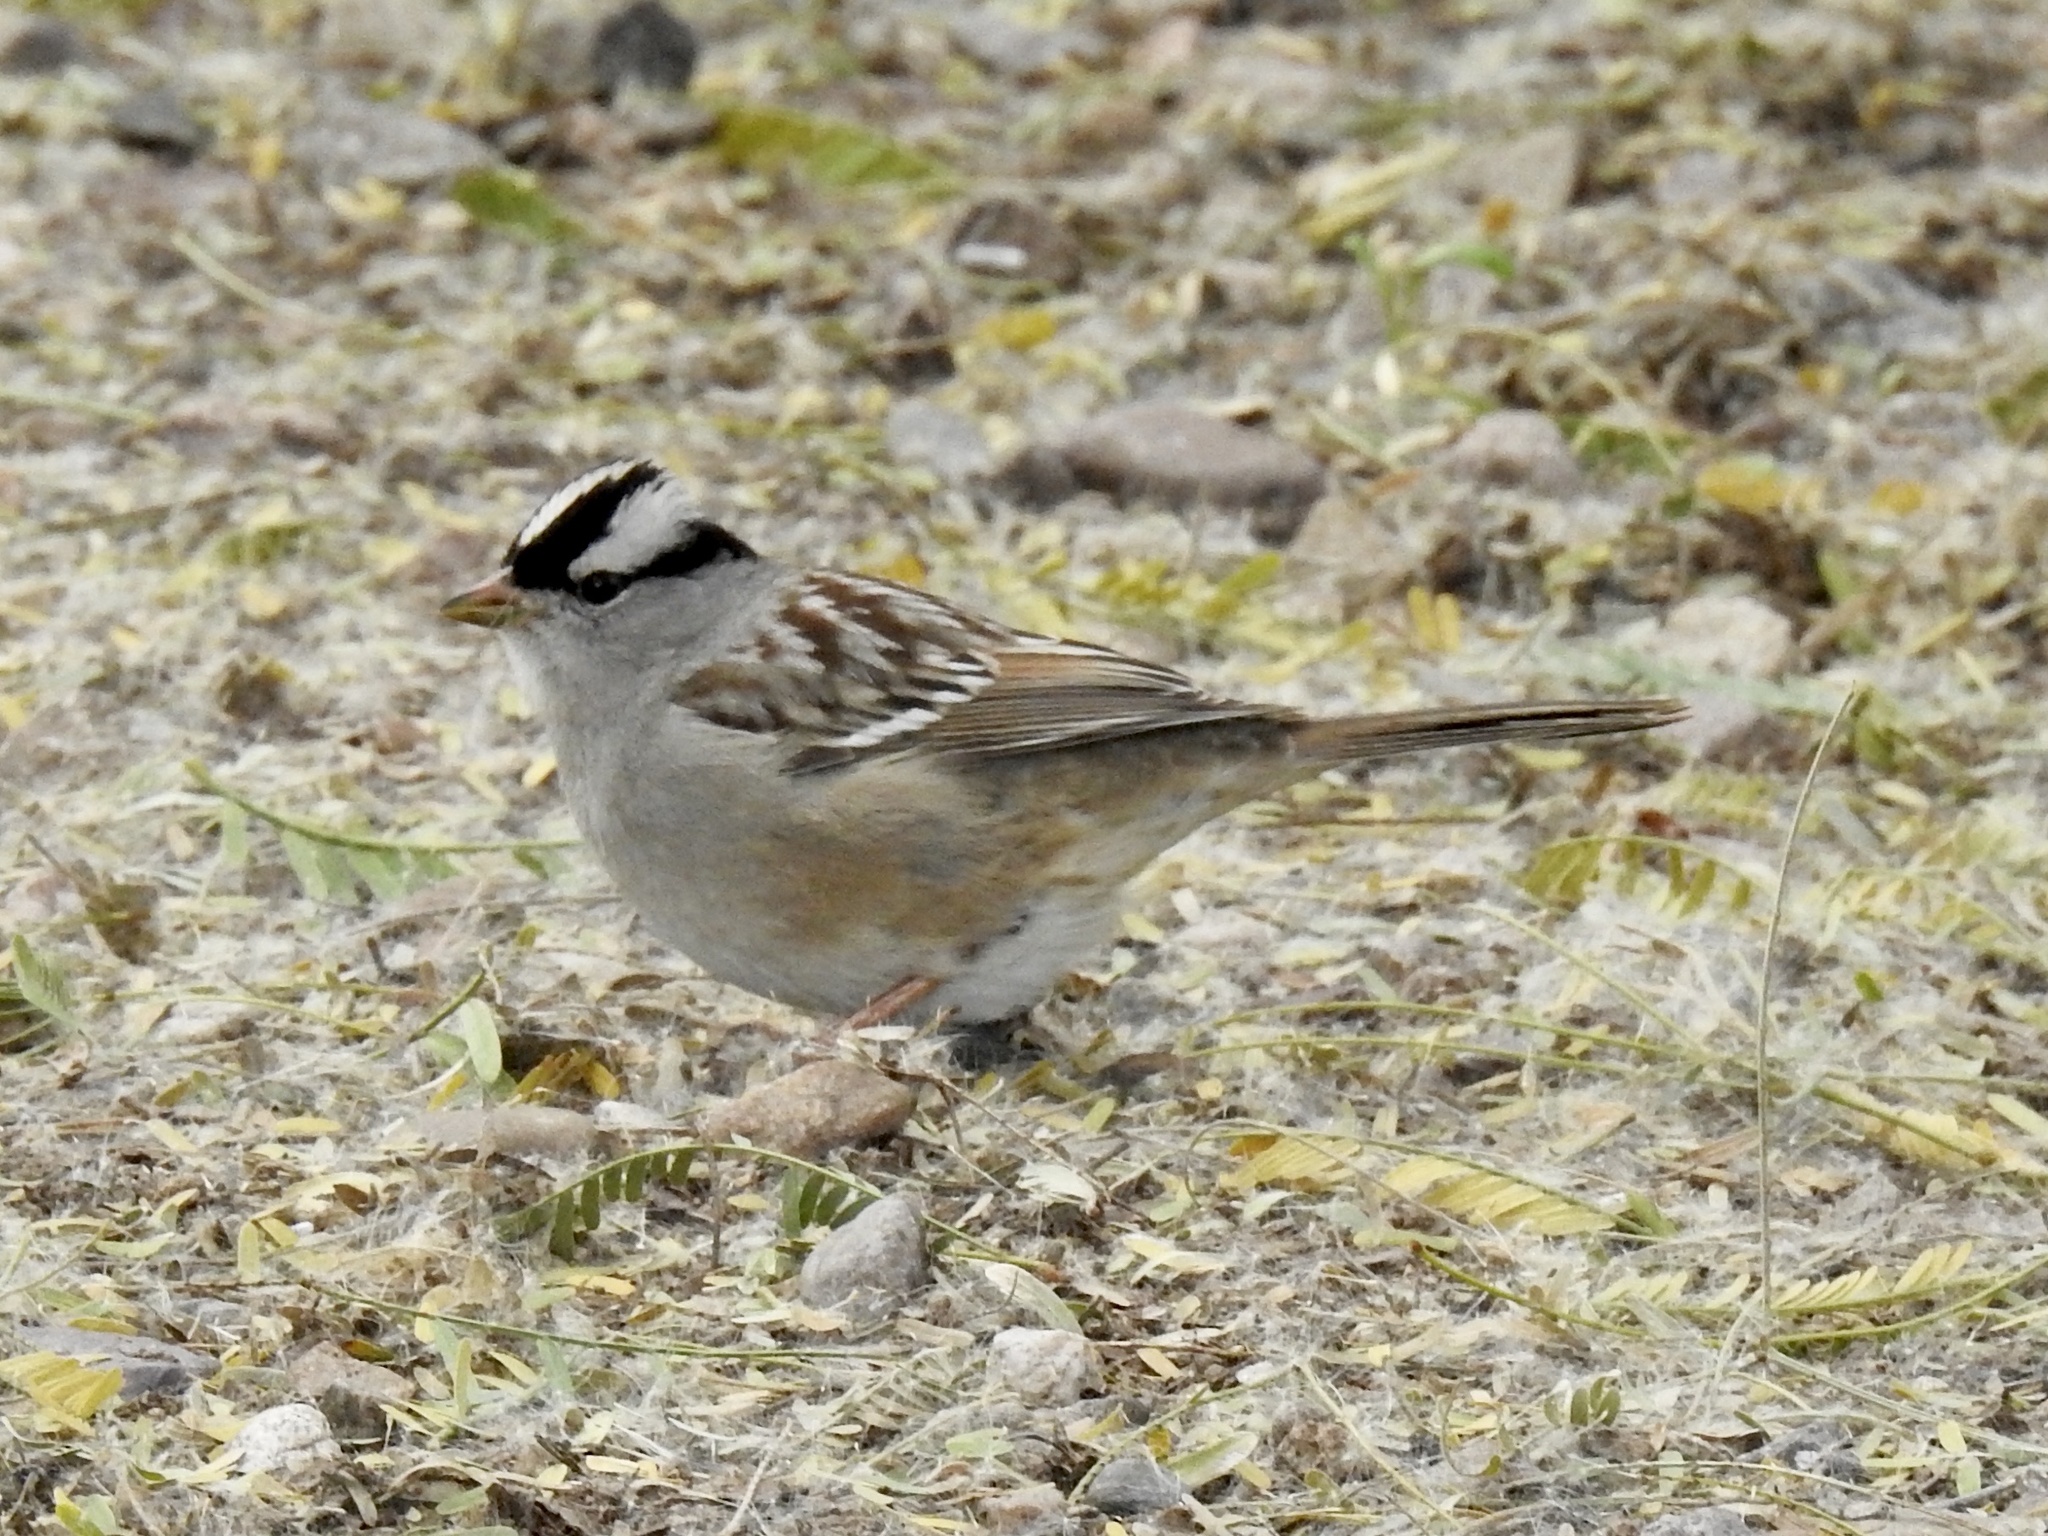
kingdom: Animalia
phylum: Chordata
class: Aves
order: Passeriformes
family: Passerellidae
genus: Zonotrichia
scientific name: Zonotrichia leucophrys
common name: White-crowned sparrow
